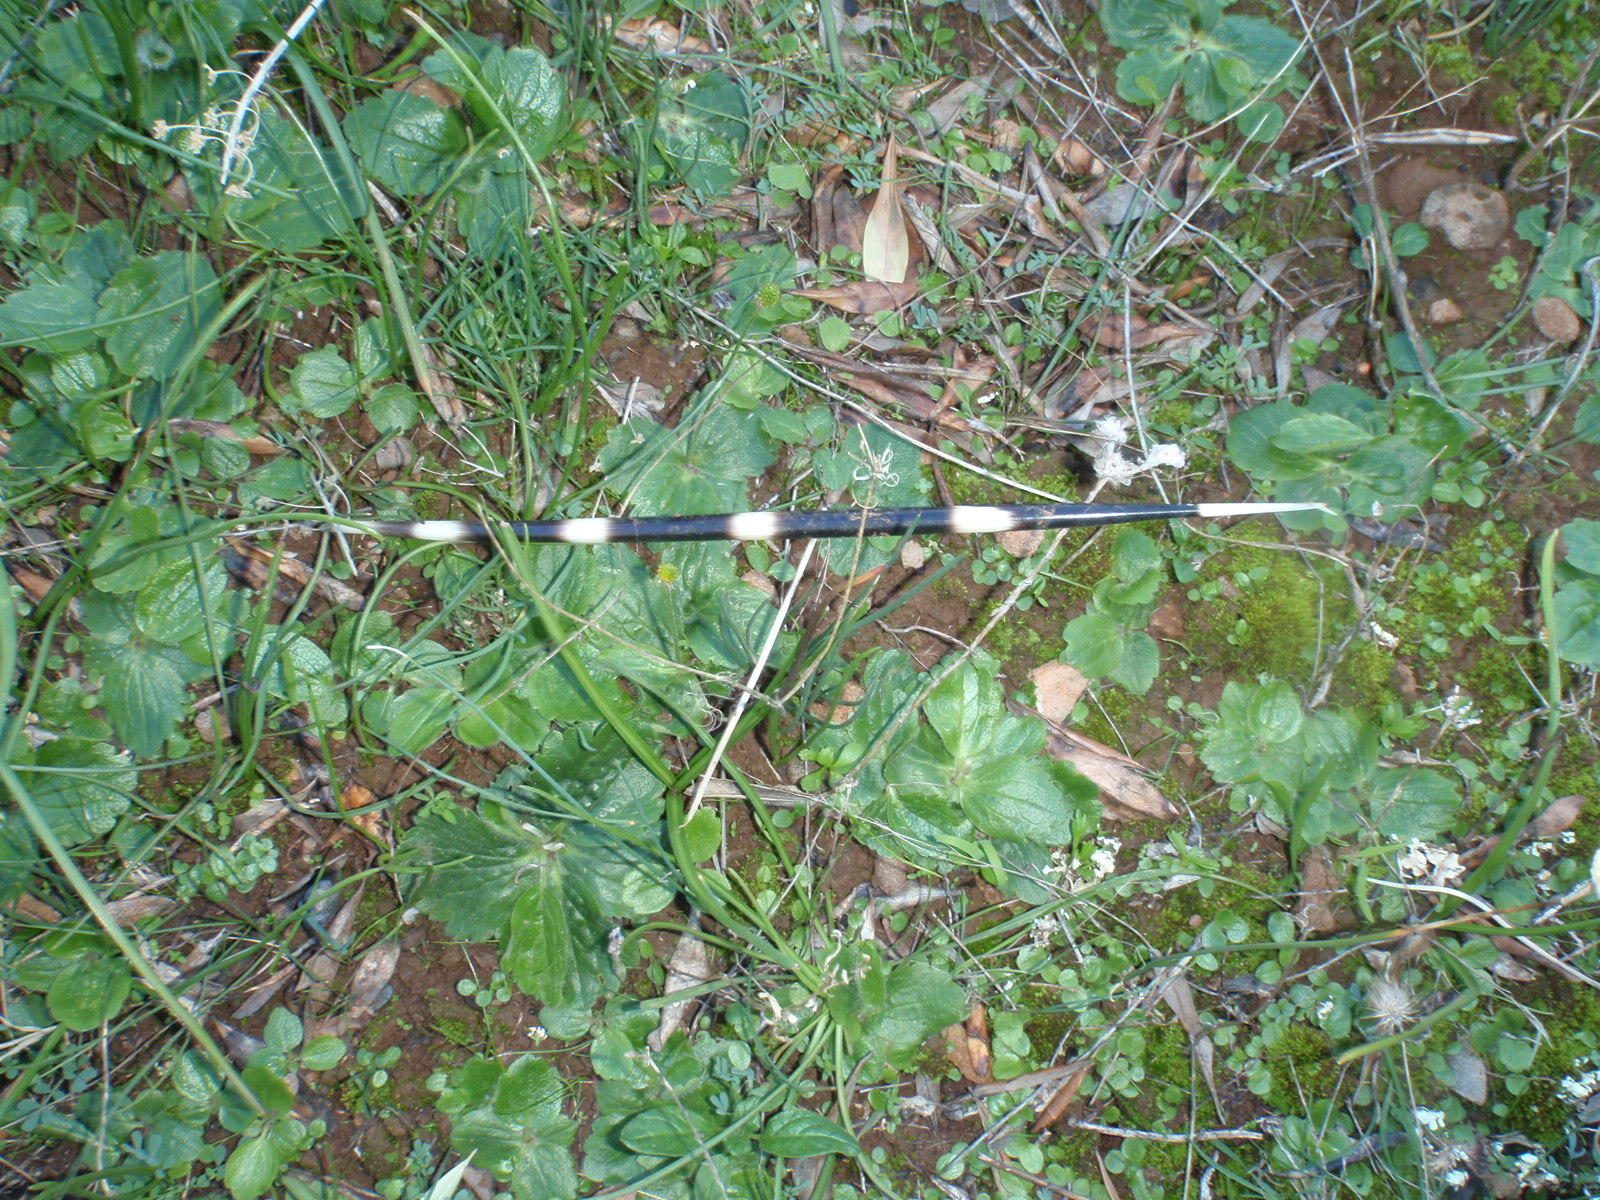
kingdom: Animalia
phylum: Chordata
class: Mammalia
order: Rodentia
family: Hystricidae
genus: Hystrix
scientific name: Hystrix cristata
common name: Crested porcupine
